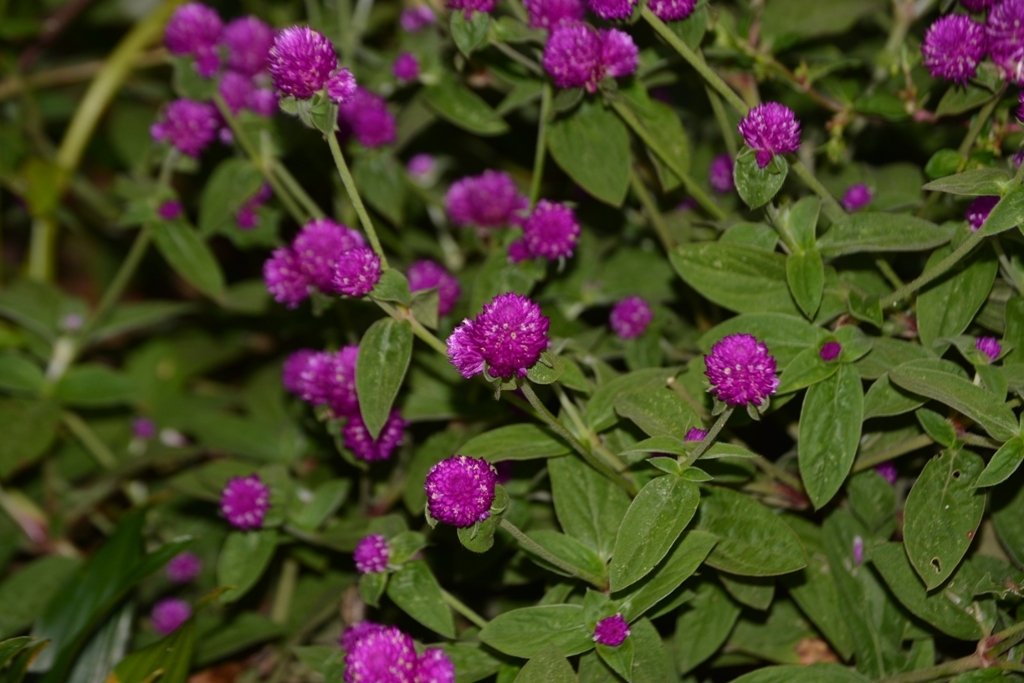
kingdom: Plantae
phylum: Tracheophyta
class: Magnoliopsida
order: Caryophyllales
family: Amaranthaceae
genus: Gomphrena
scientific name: Gomphrena globosa
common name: Common globe amaranth
